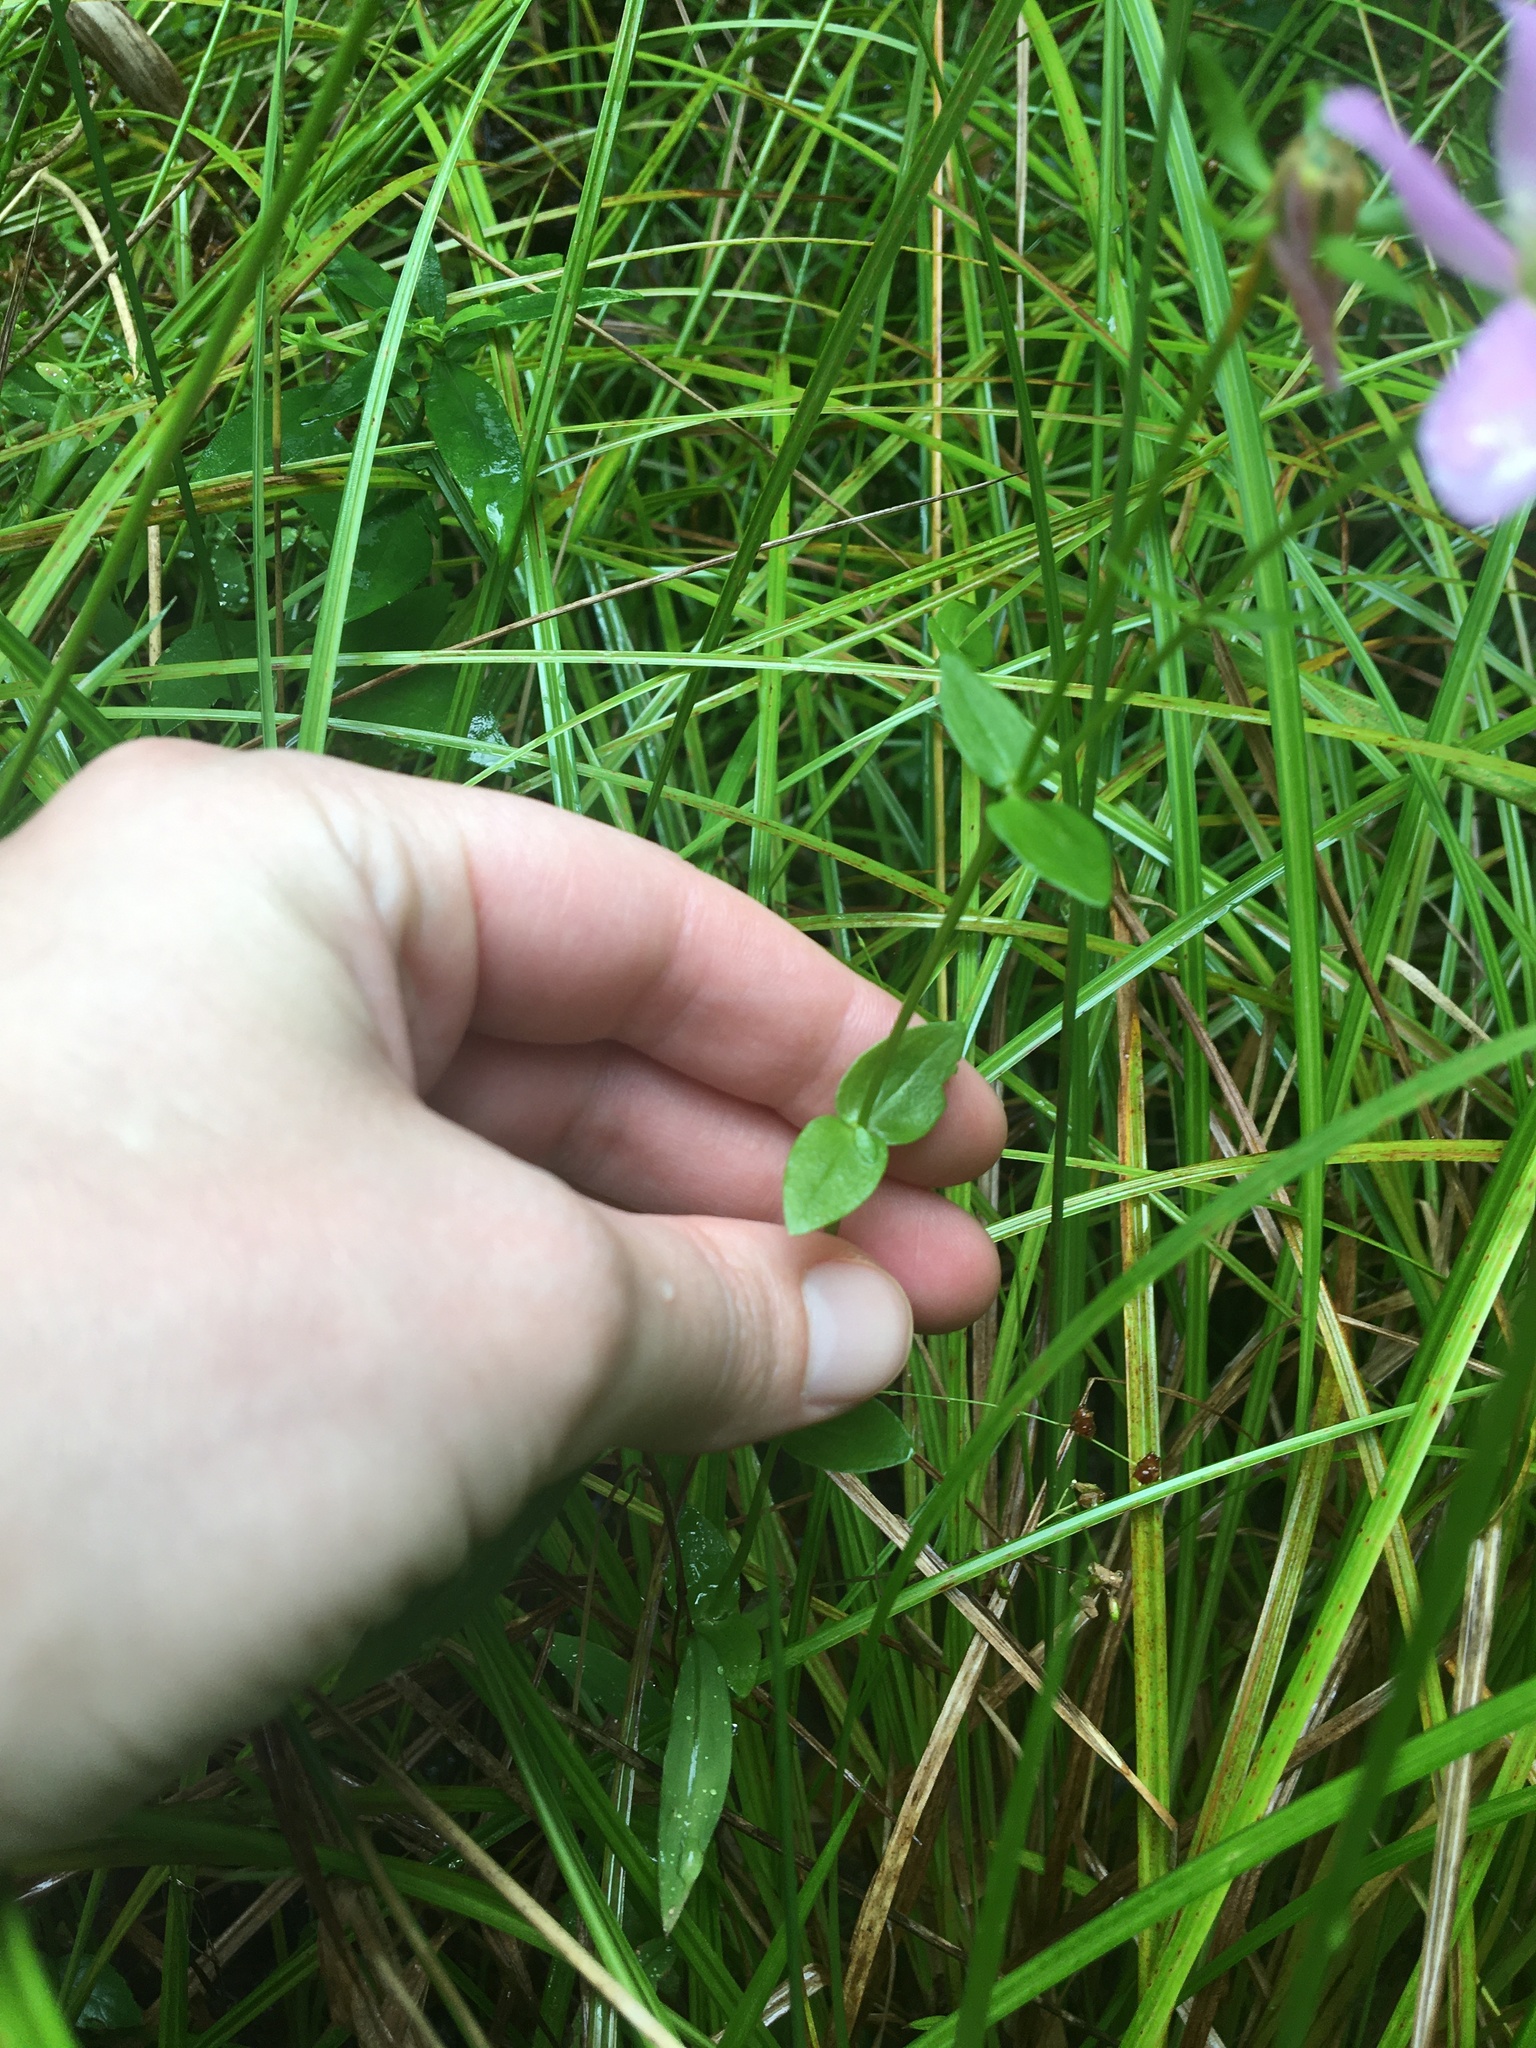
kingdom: Plantae
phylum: Tracheophyta
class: Magnoliopsida
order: Gentianales
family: Gentianaceae
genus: Sabatia
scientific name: Sabatia angularis
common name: Rose-pink
